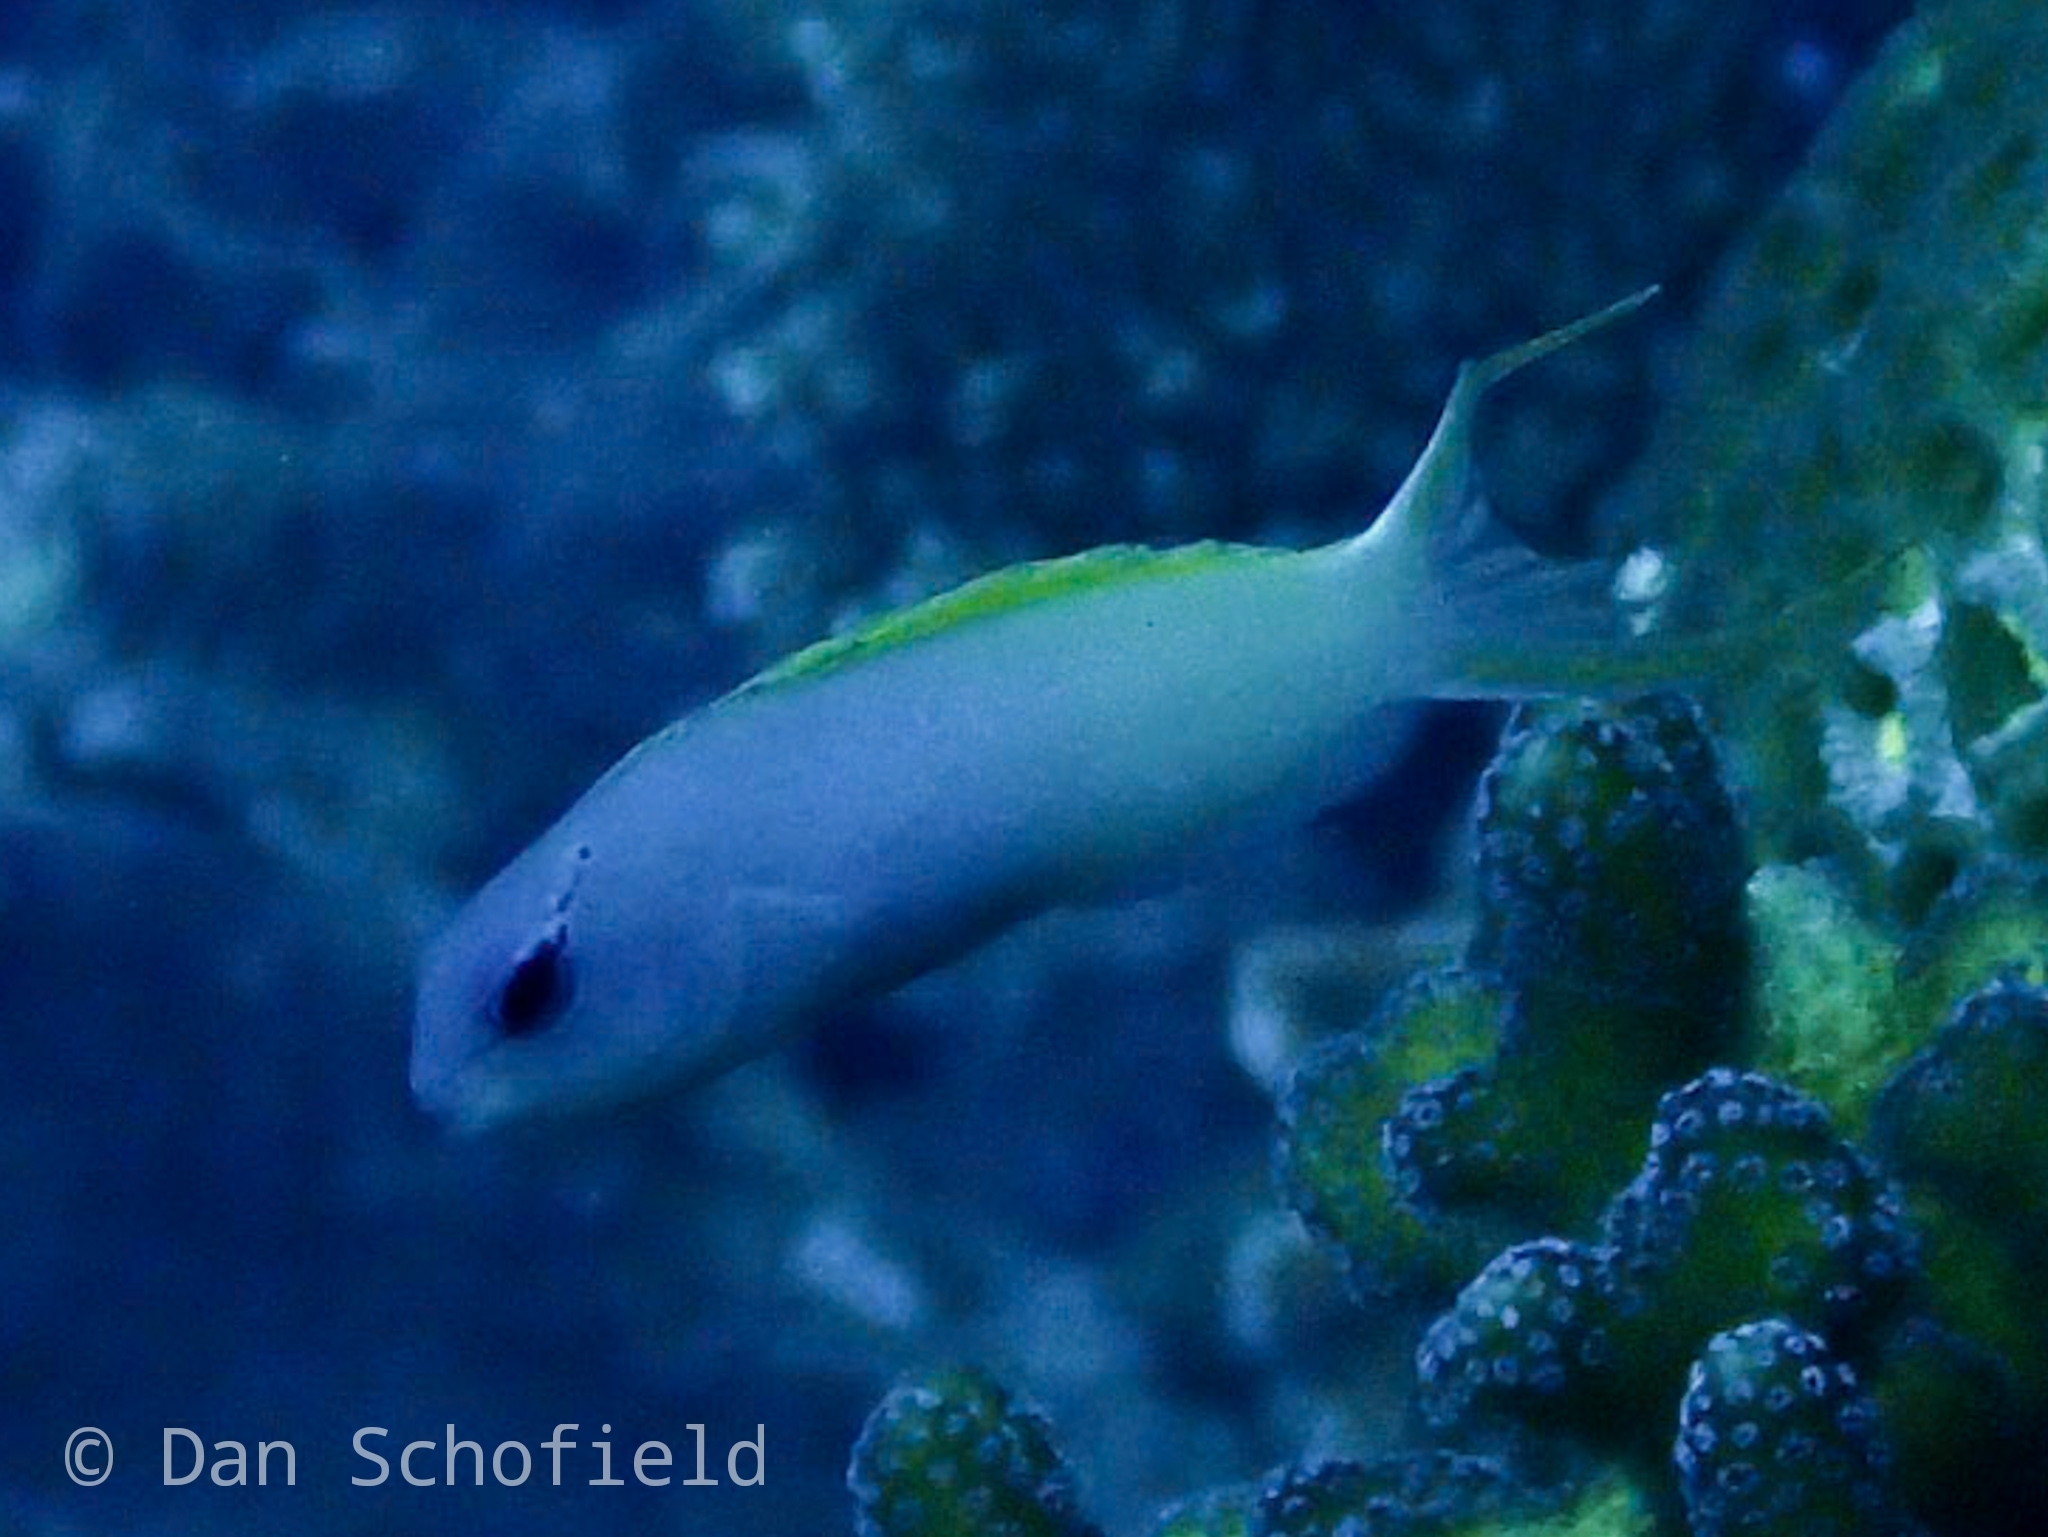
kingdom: Animalia
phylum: Chordata
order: Perciformes
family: Blenniidae
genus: Meiacanthus
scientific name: Meiacanthus atrodorsalis
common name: Eye-lash harptail-blenny
